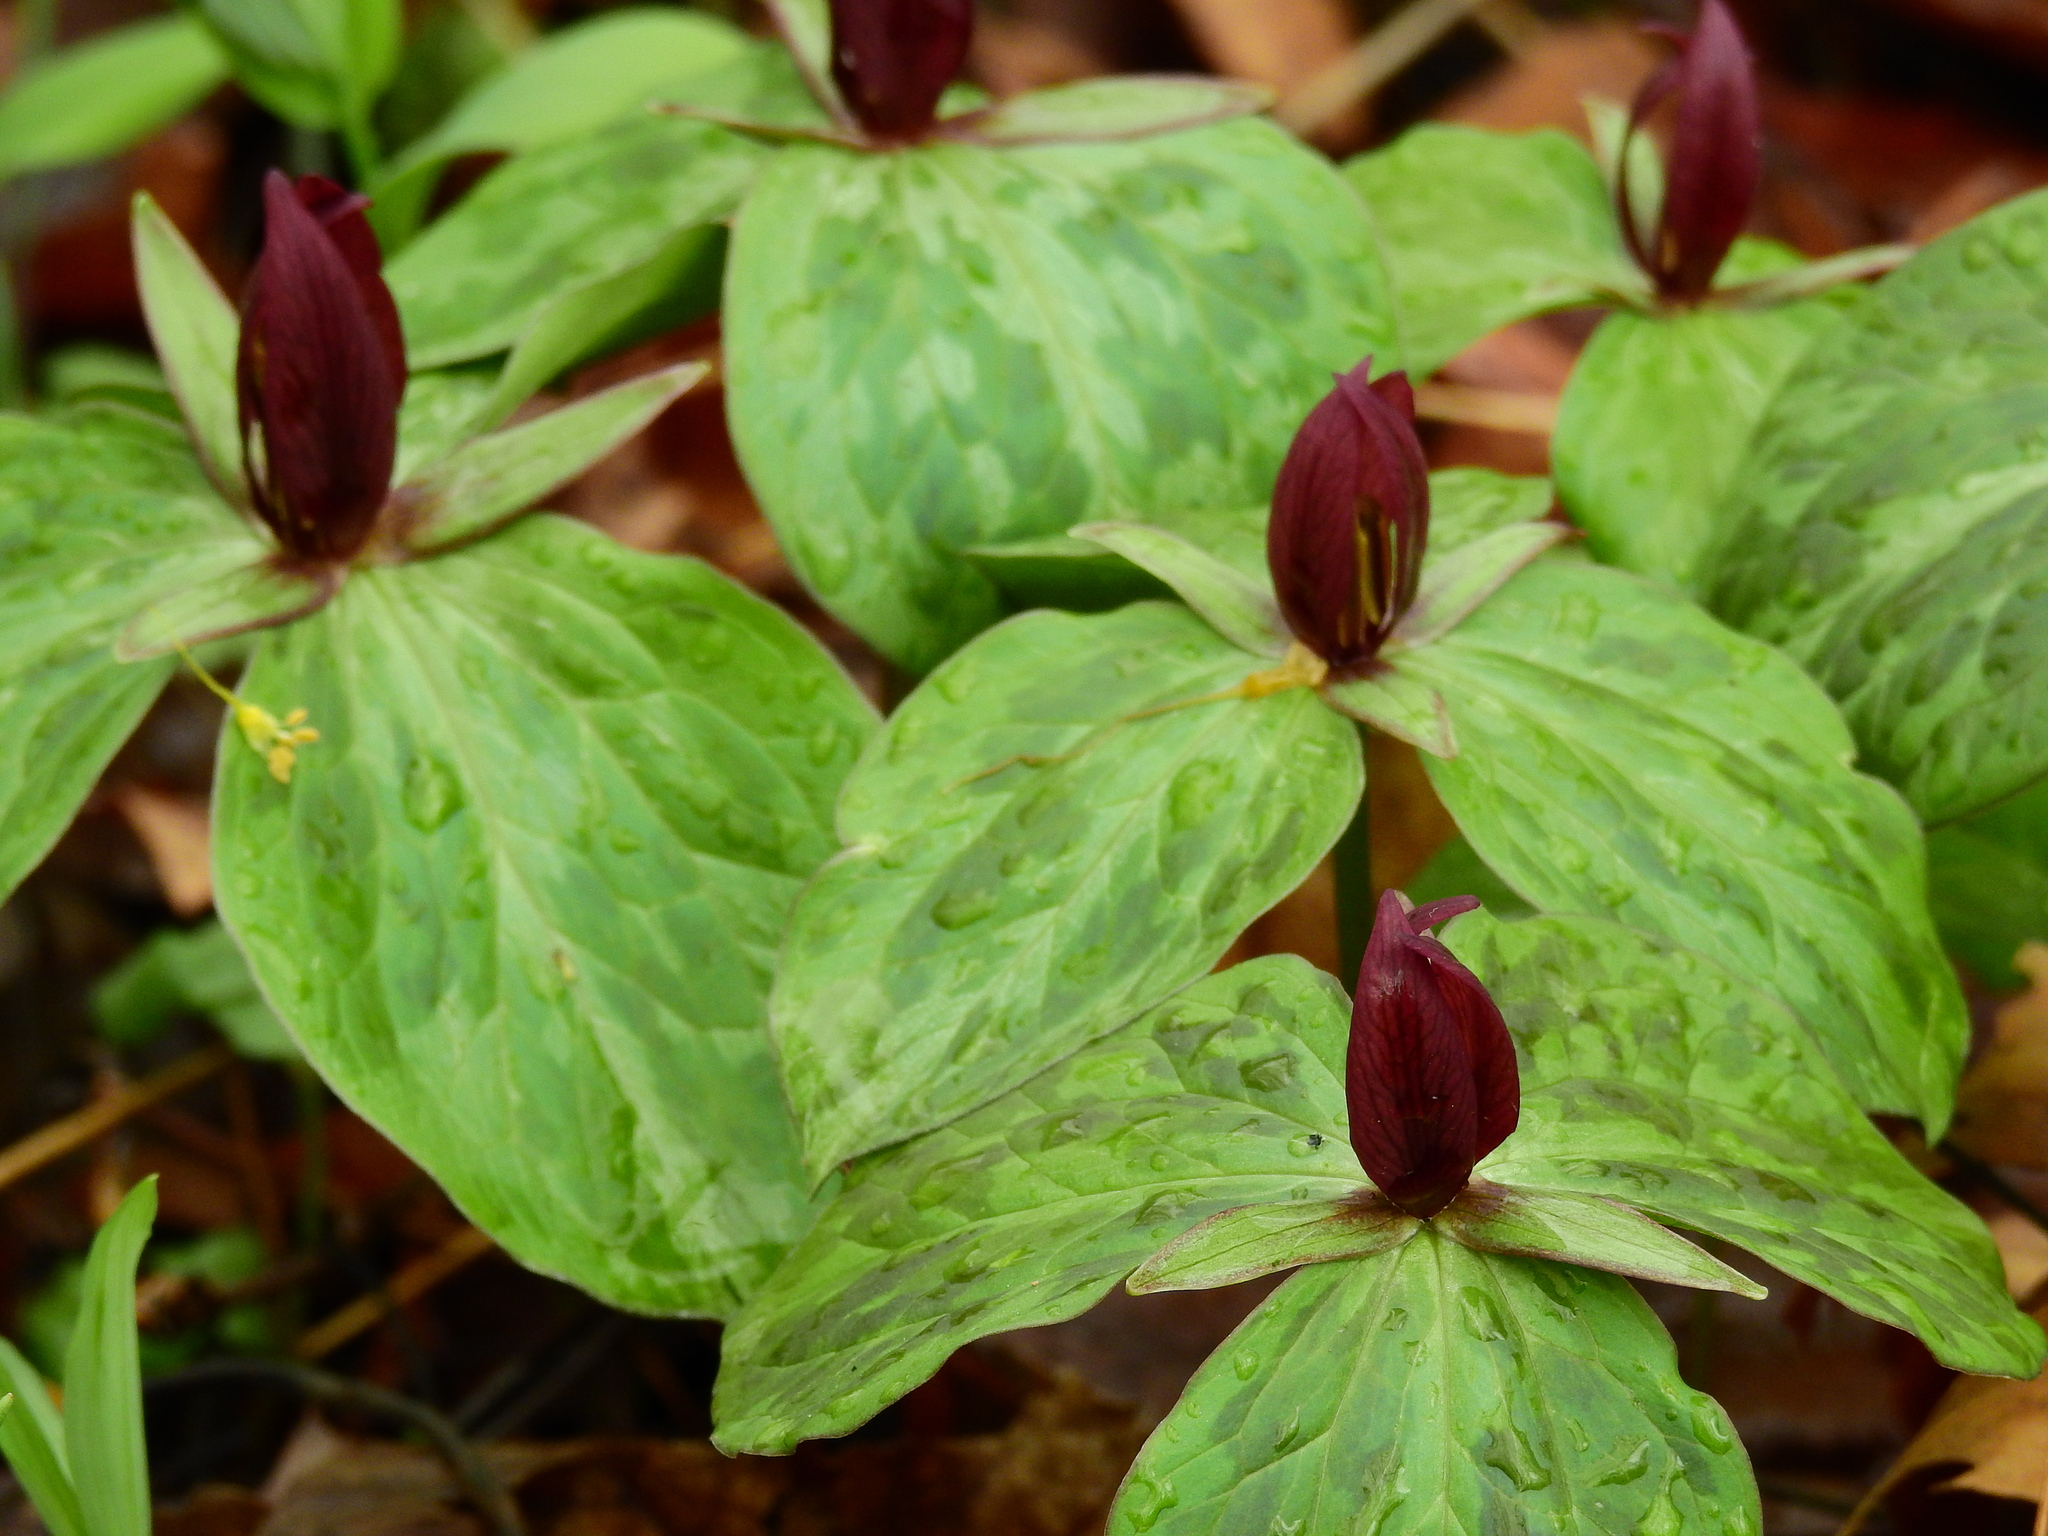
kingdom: Plantae
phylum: Tracheophyta
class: Liliopsida
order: Liliales
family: Melanthiaceae
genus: Trillium
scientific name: Trillium sessile
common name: Sessile trillium
